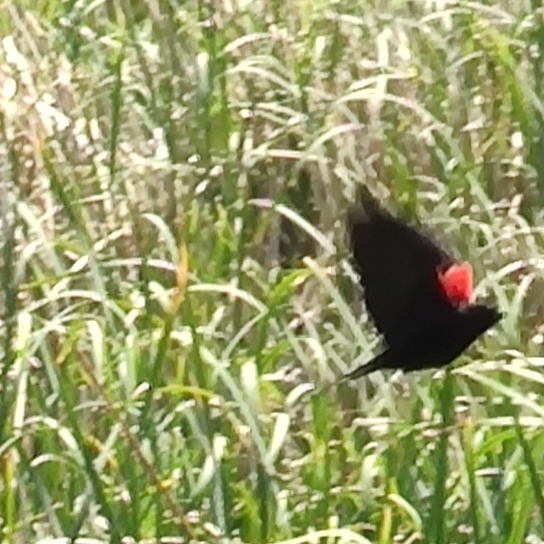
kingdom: Animalia
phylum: Chordata
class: Aves
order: Passeriformes
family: Icteridae
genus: Agelaius
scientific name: Agelaius phoeniceus
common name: Red-winged blackbird
